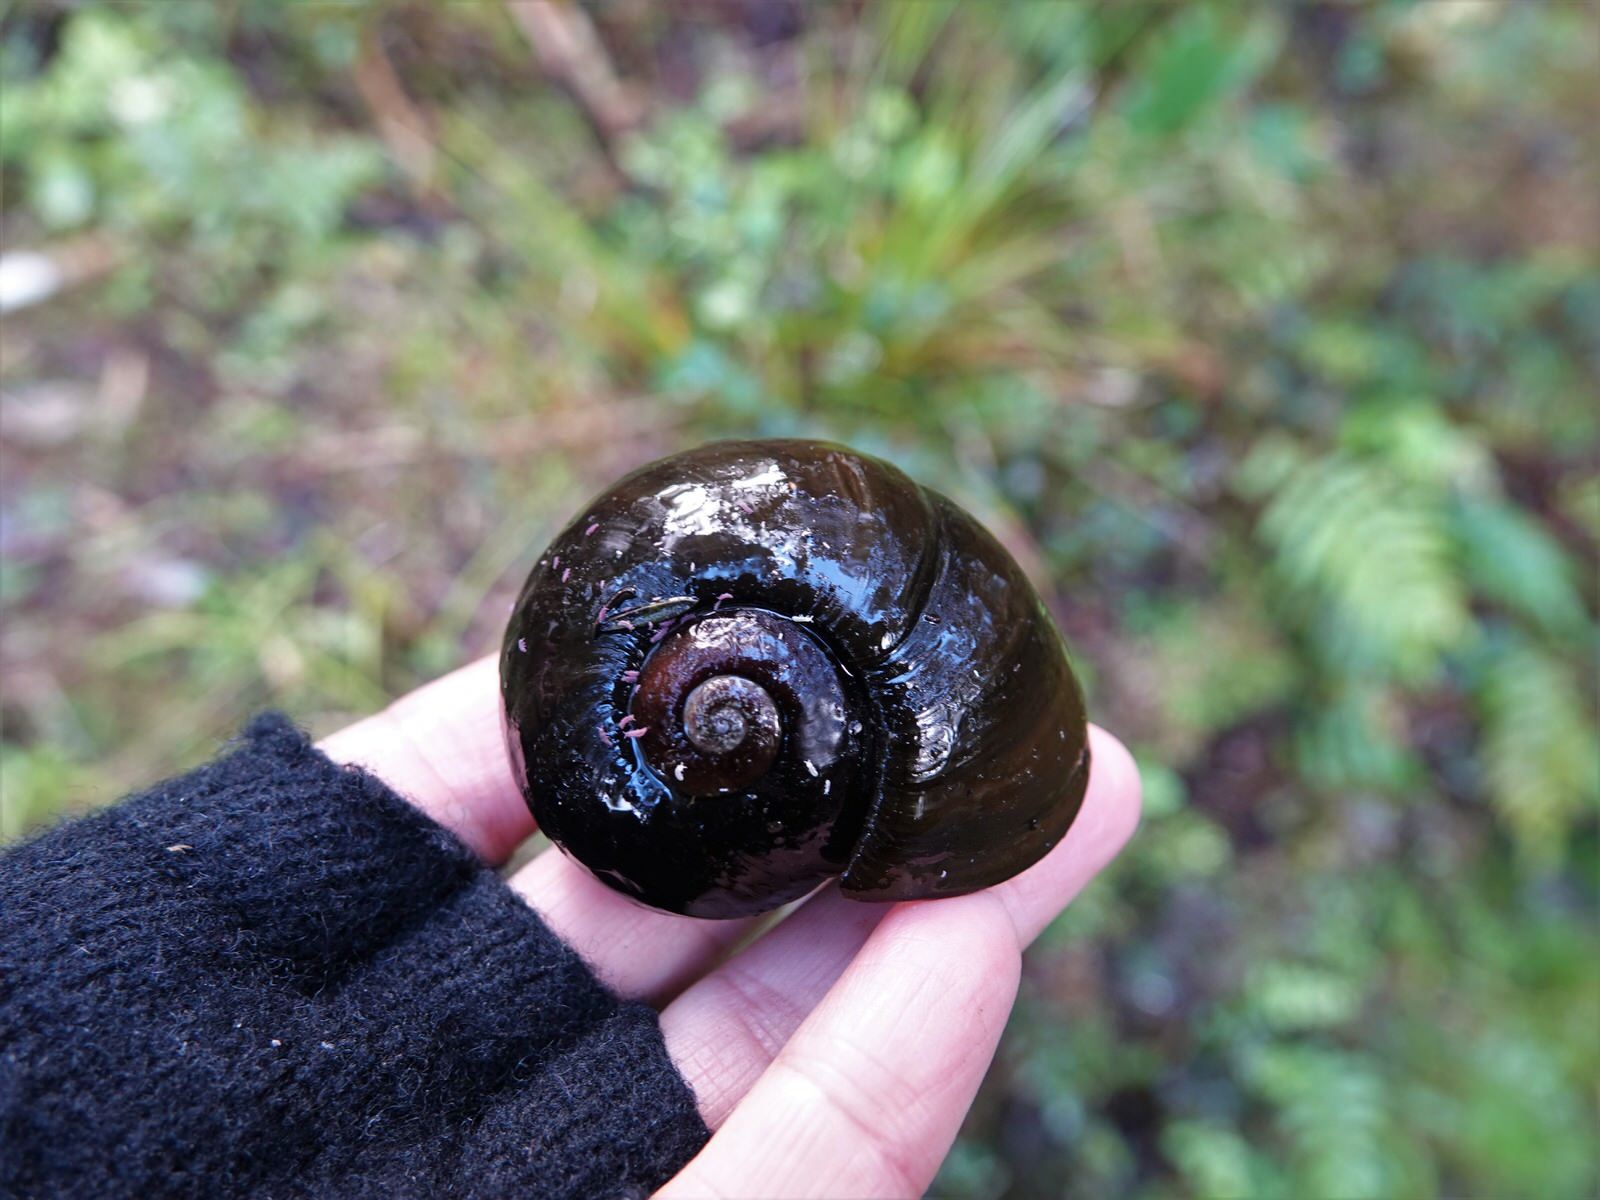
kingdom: Animalia
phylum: Mollusca
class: Gastropoda
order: Stylommatophora
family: Rhytididae
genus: Paryphanta
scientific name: Paryphanta busbyi
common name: Kauri snail
